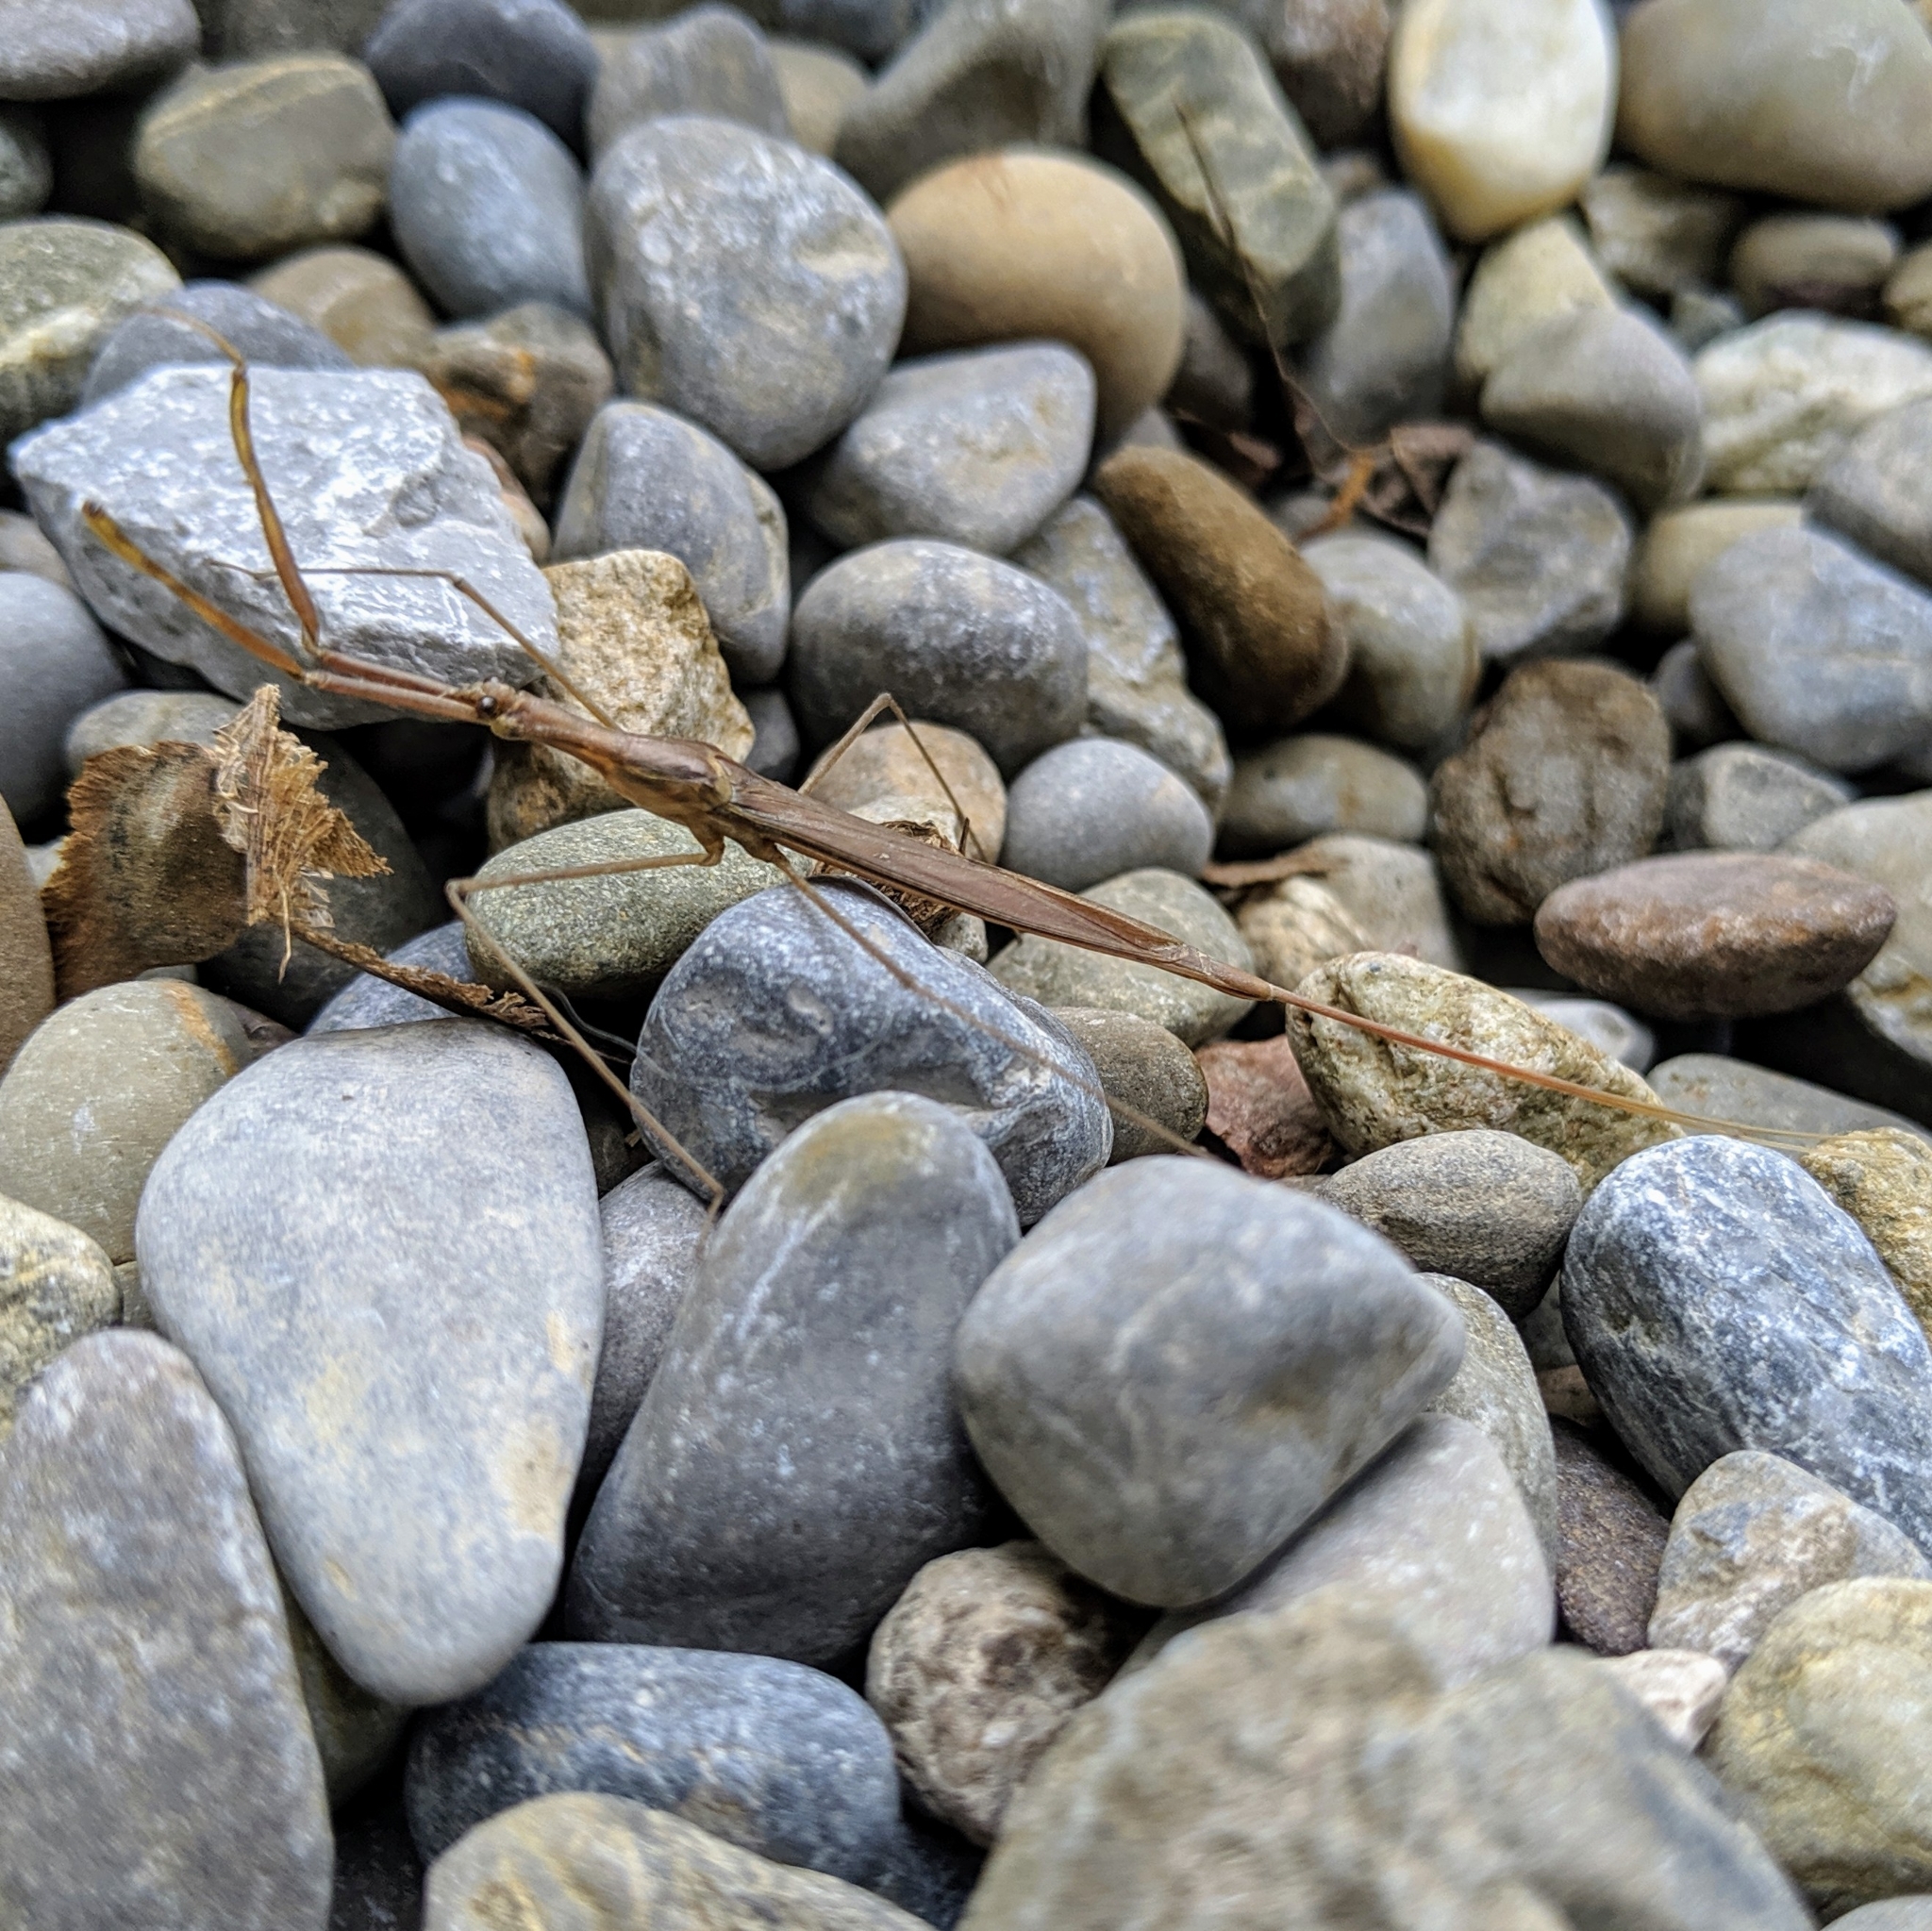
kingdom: Animalia
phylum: Arthropoda
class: Insecta
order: Hemiptera
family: Nepidae
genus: Ranatra
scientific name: Ranatra linearis
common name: Water stick insect
